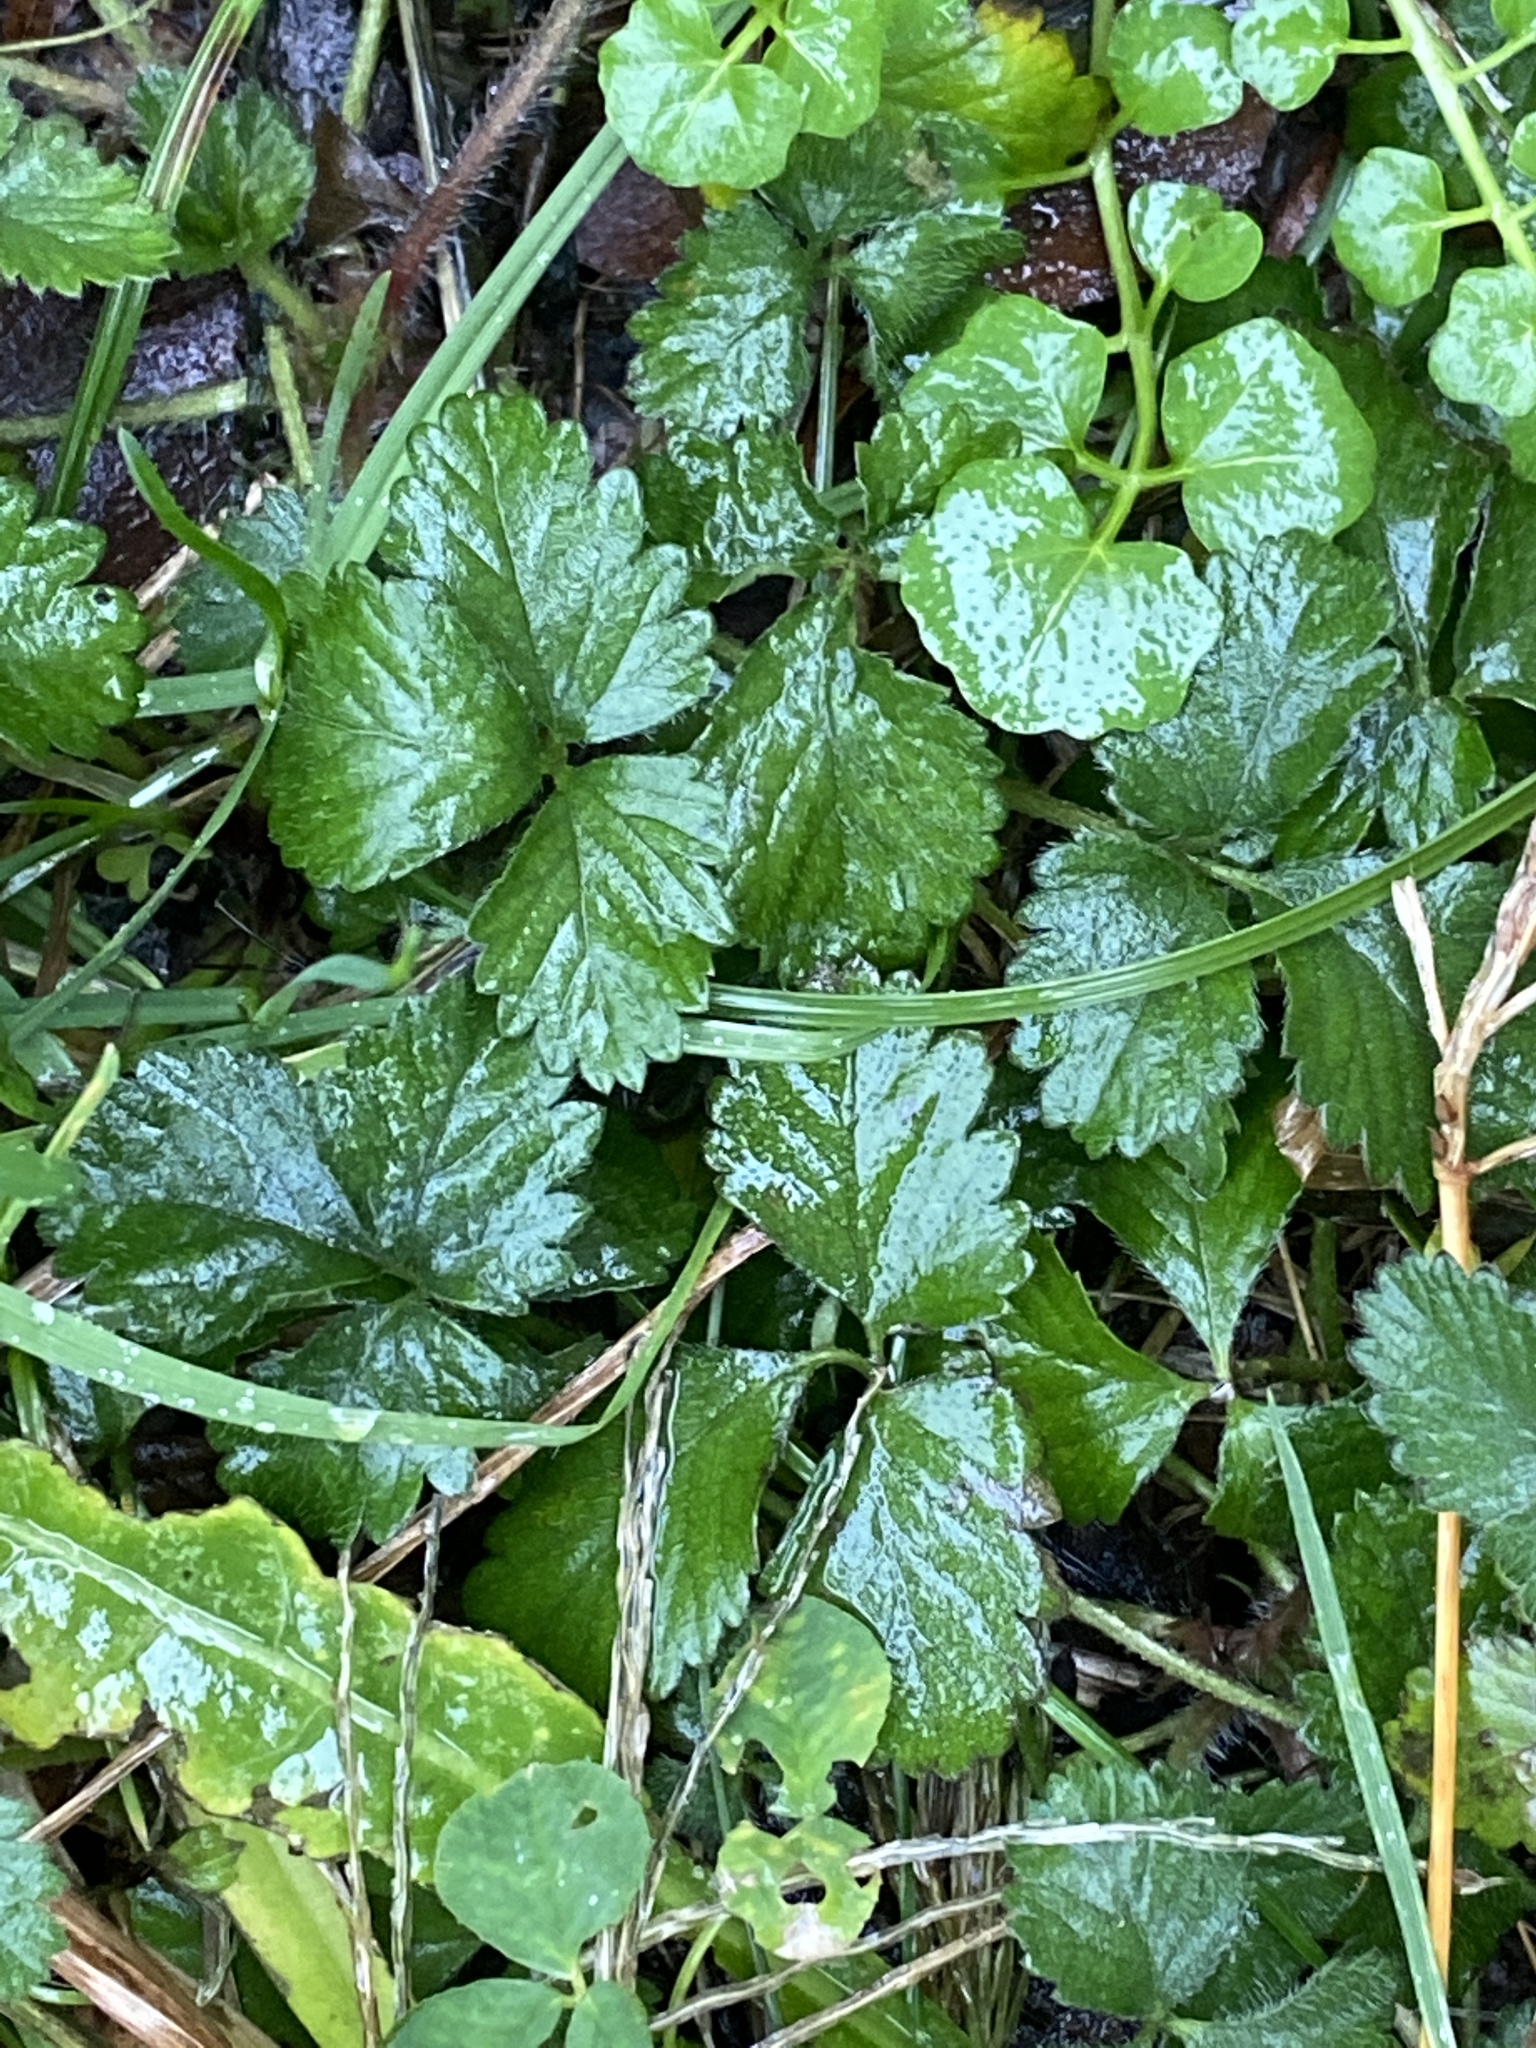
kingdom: Plantae
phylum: Tracheophyta
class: Magnoliopsida
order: Rosales
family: Rosaceae
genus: Potentilla
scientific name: Potentilla indica
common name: Yellow-flowered strawberry
